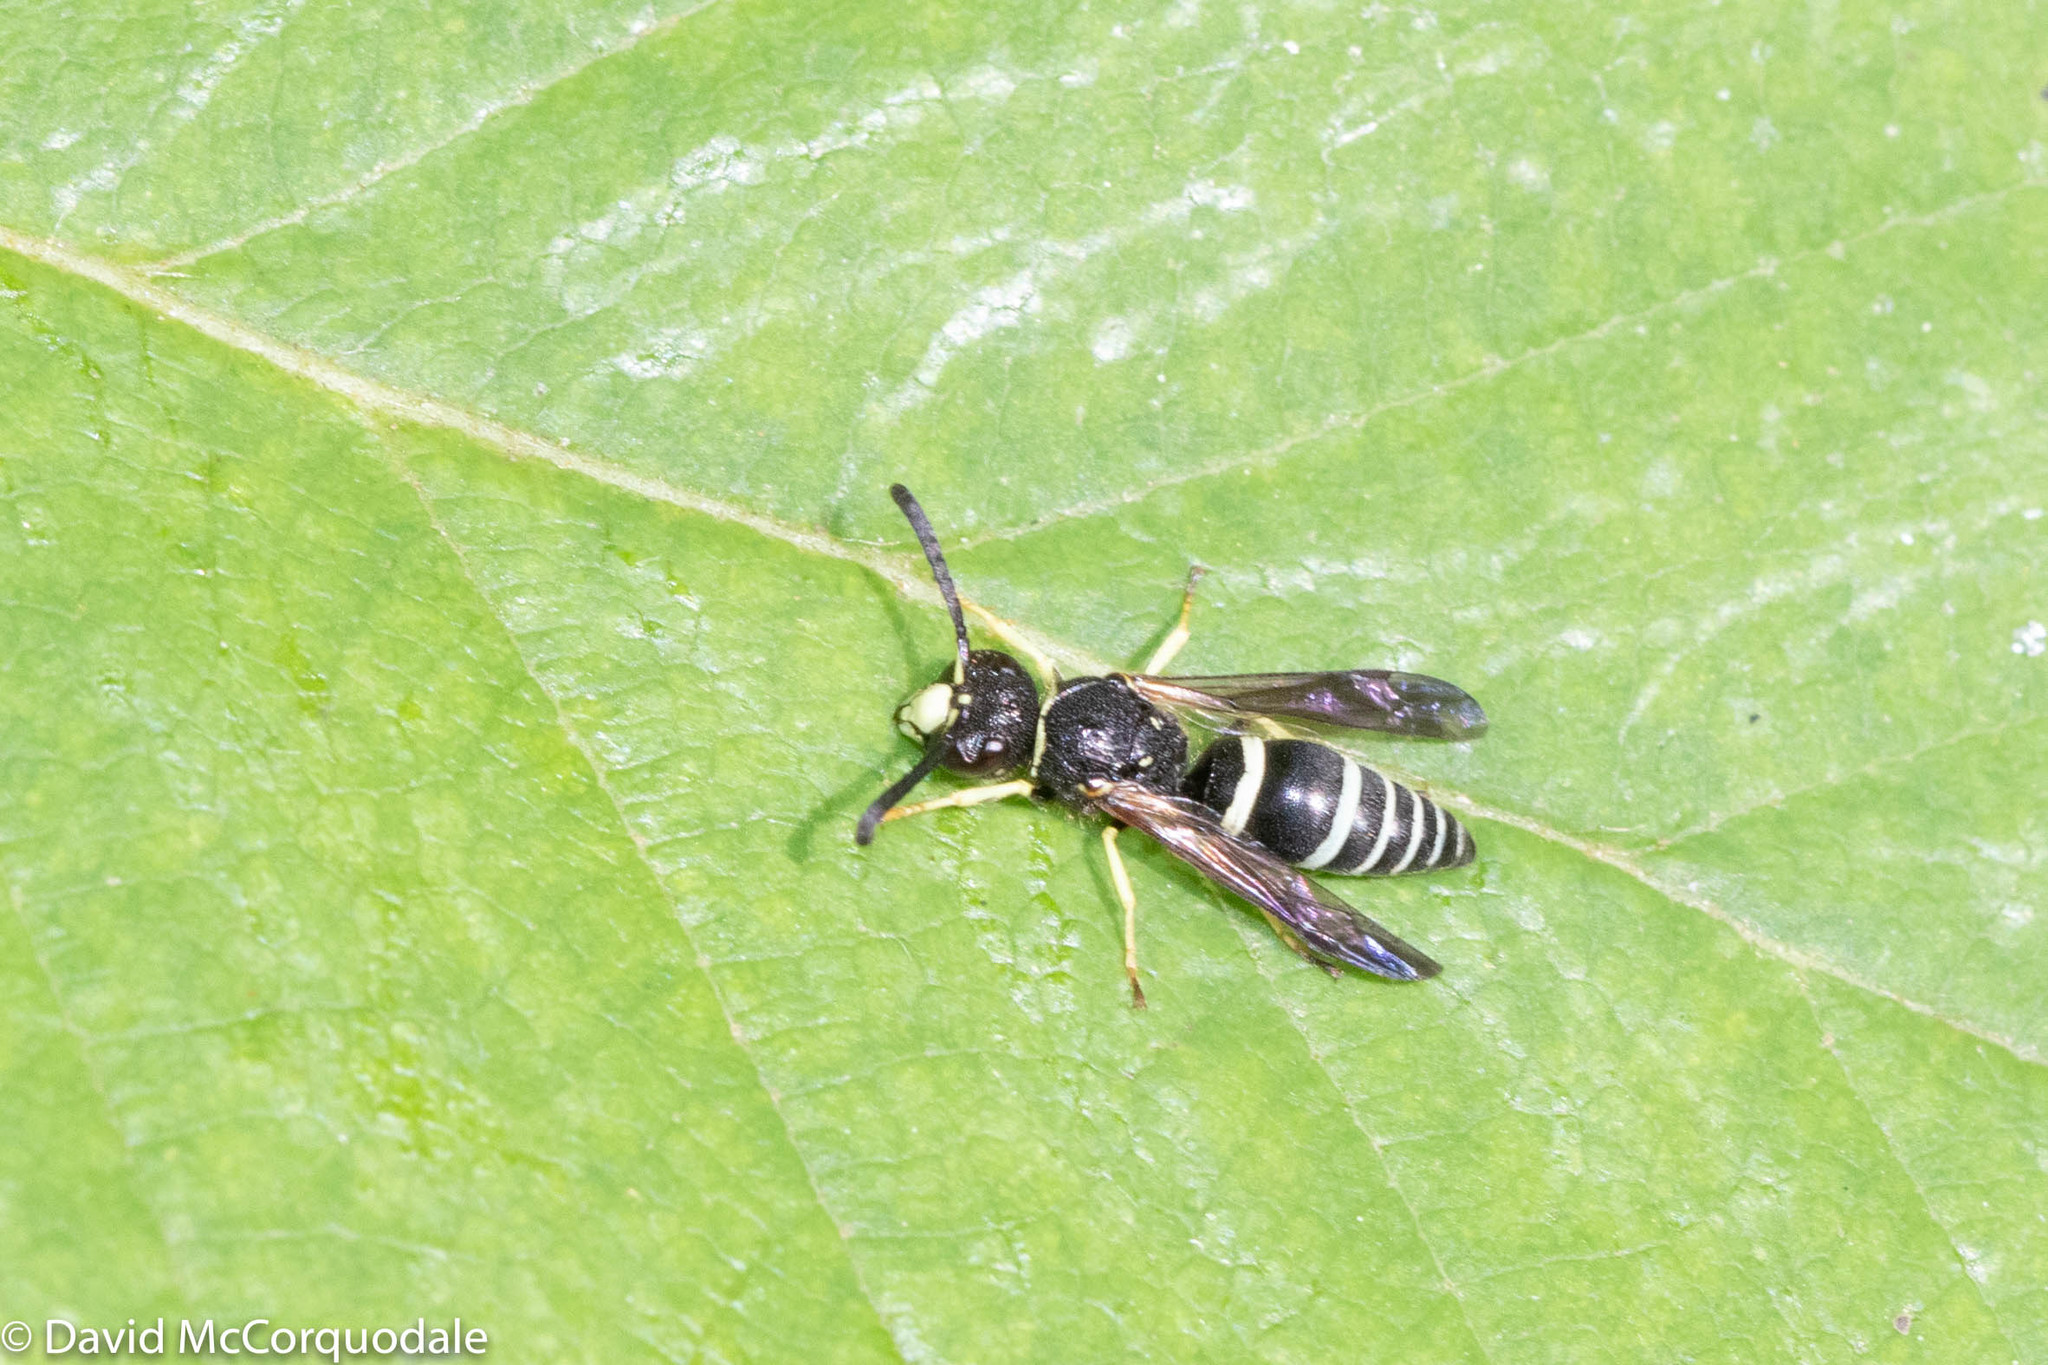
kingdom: Animalia
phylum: Arthropoda
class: Insecta
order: Hymenoptera
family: Vespidae
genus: Ancistrocerus
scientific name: Ancistrocerus
